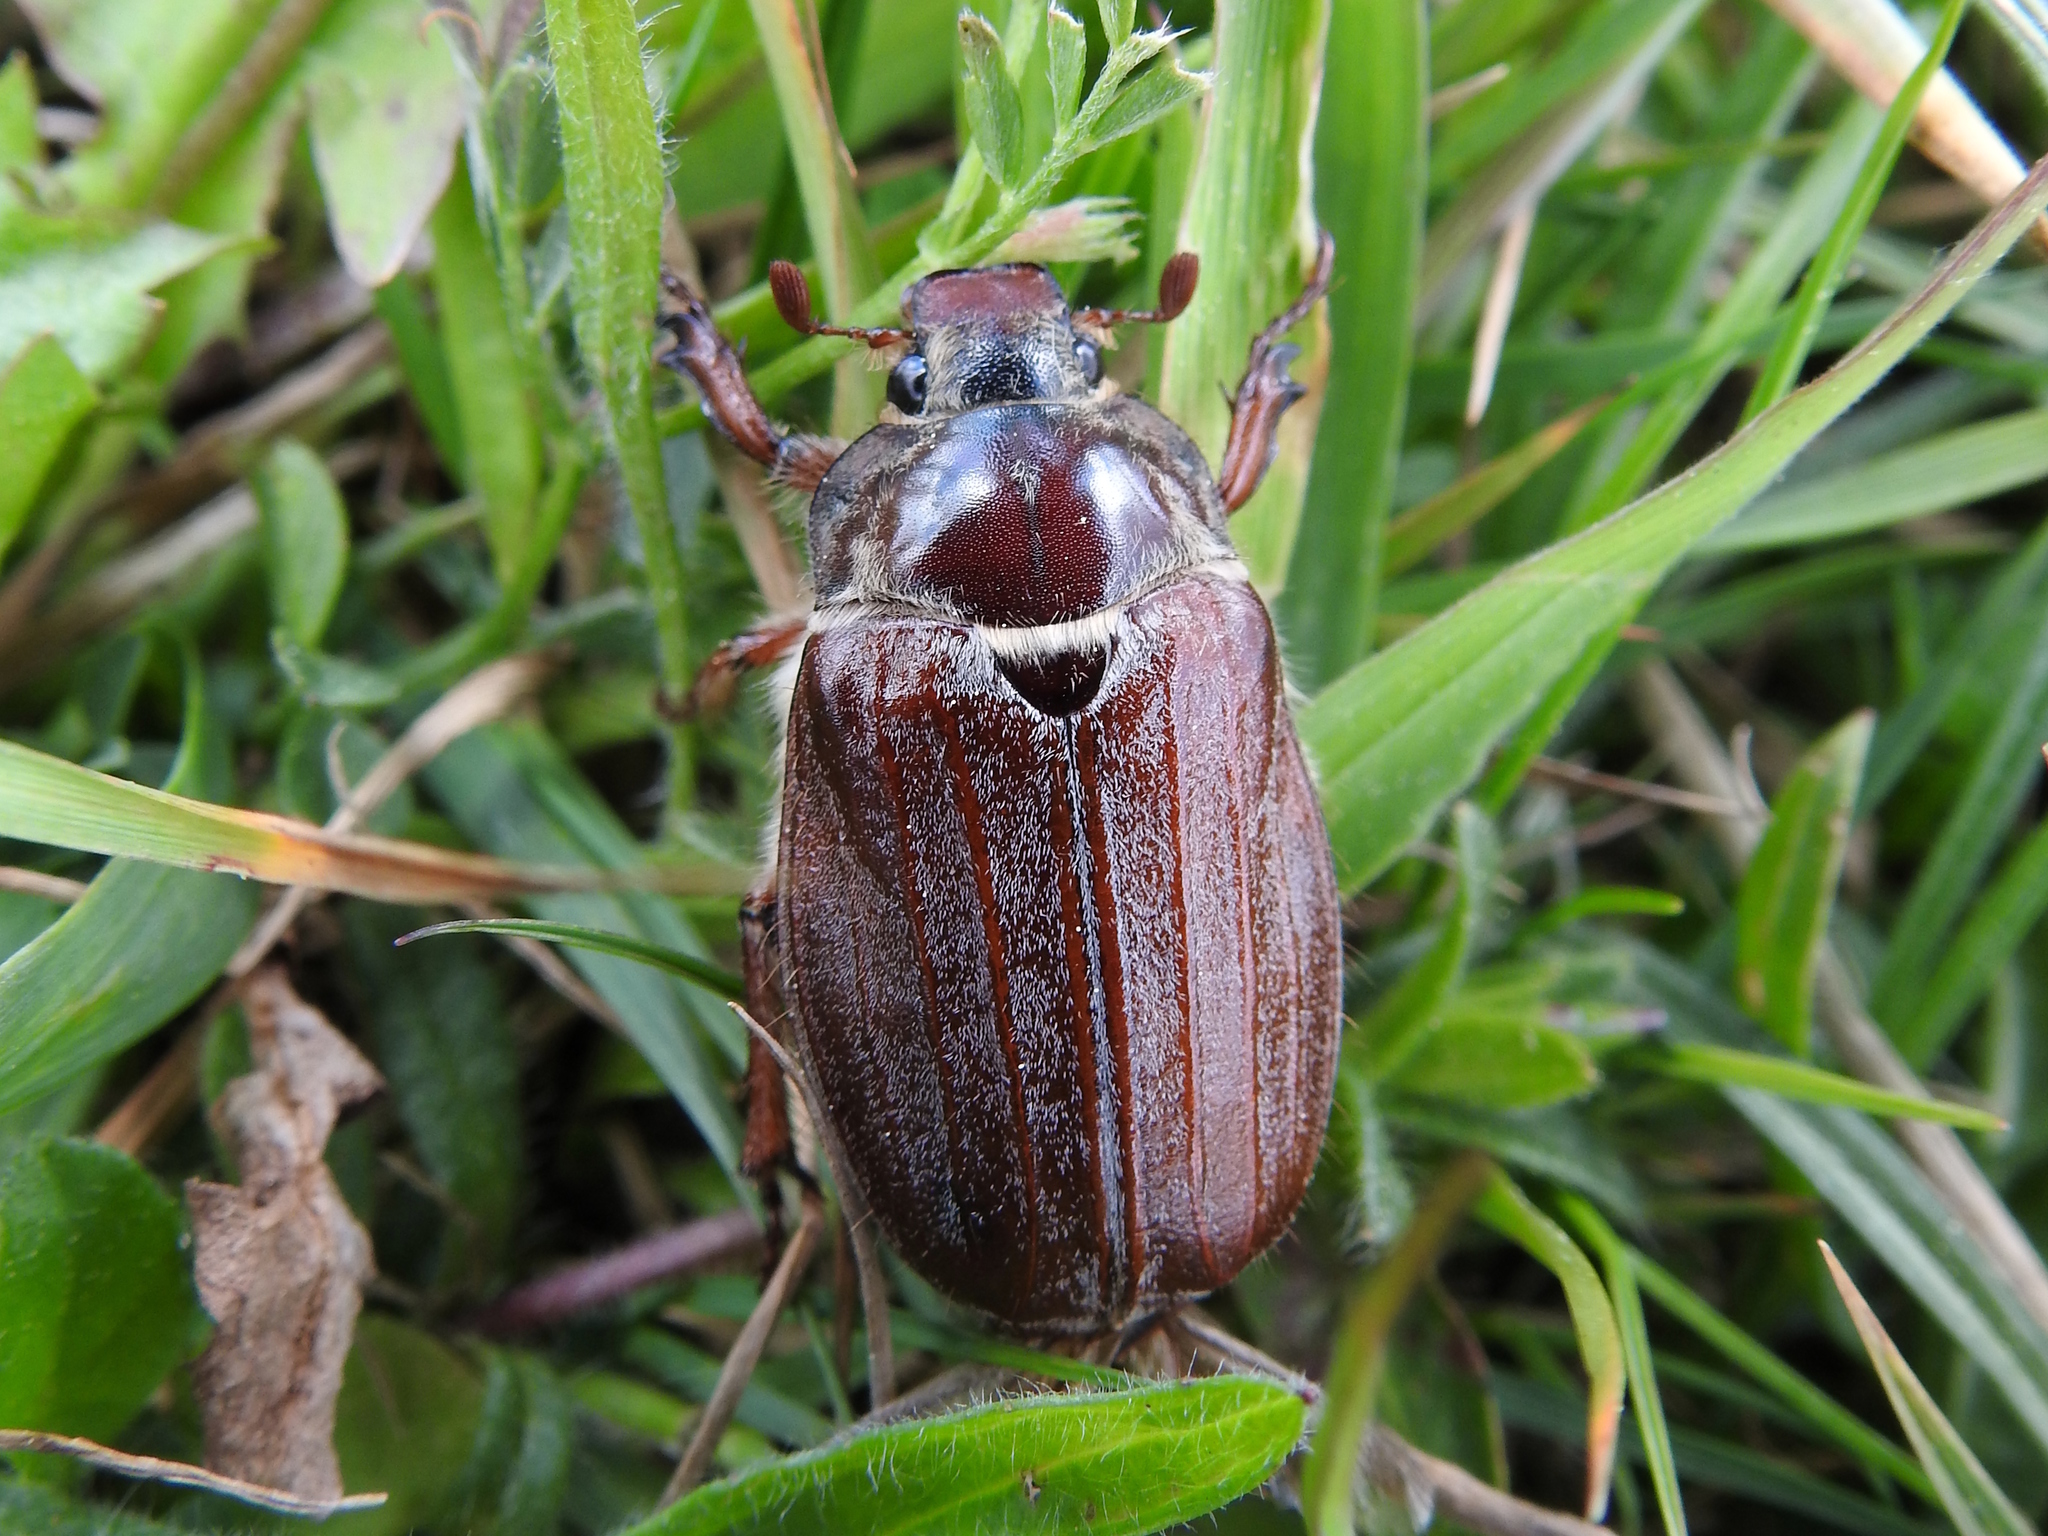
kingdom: Animalia
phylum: Arthropoda
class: Insecta
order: Coleoptera
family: Scarabaeidae
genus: Melolontha
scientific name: Melolontha melolontha
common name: Cockchafer maybeetle
